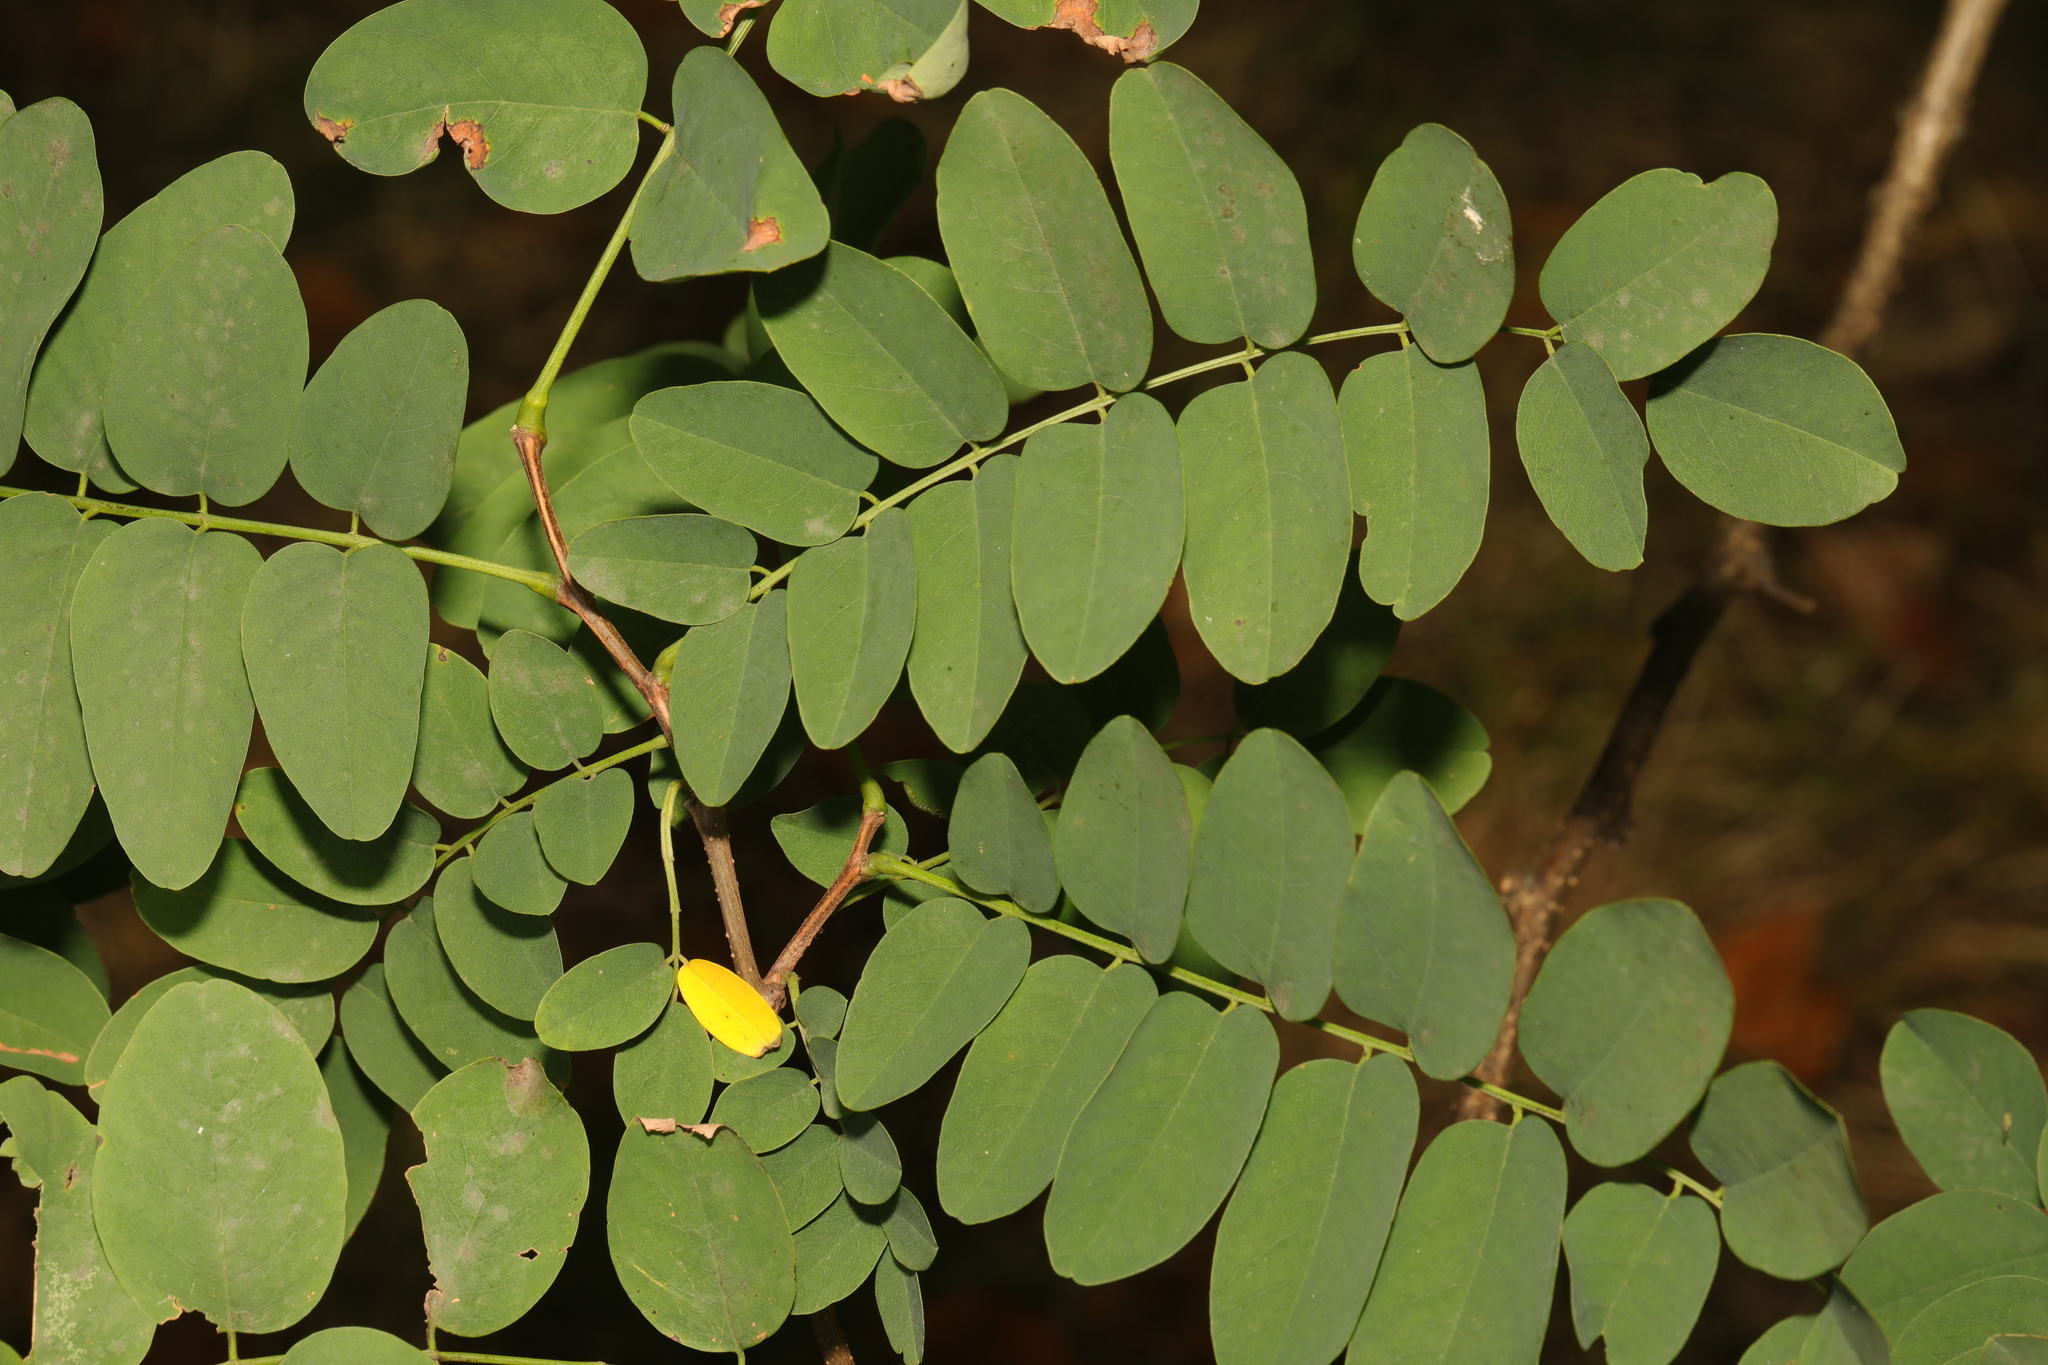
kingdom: Plantae
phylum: Tracheophyta
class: Magnoliopsida
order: Fabales
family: Fabaceae
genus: Robinia
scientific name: Robinia pseudoacacia
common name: Black locust
